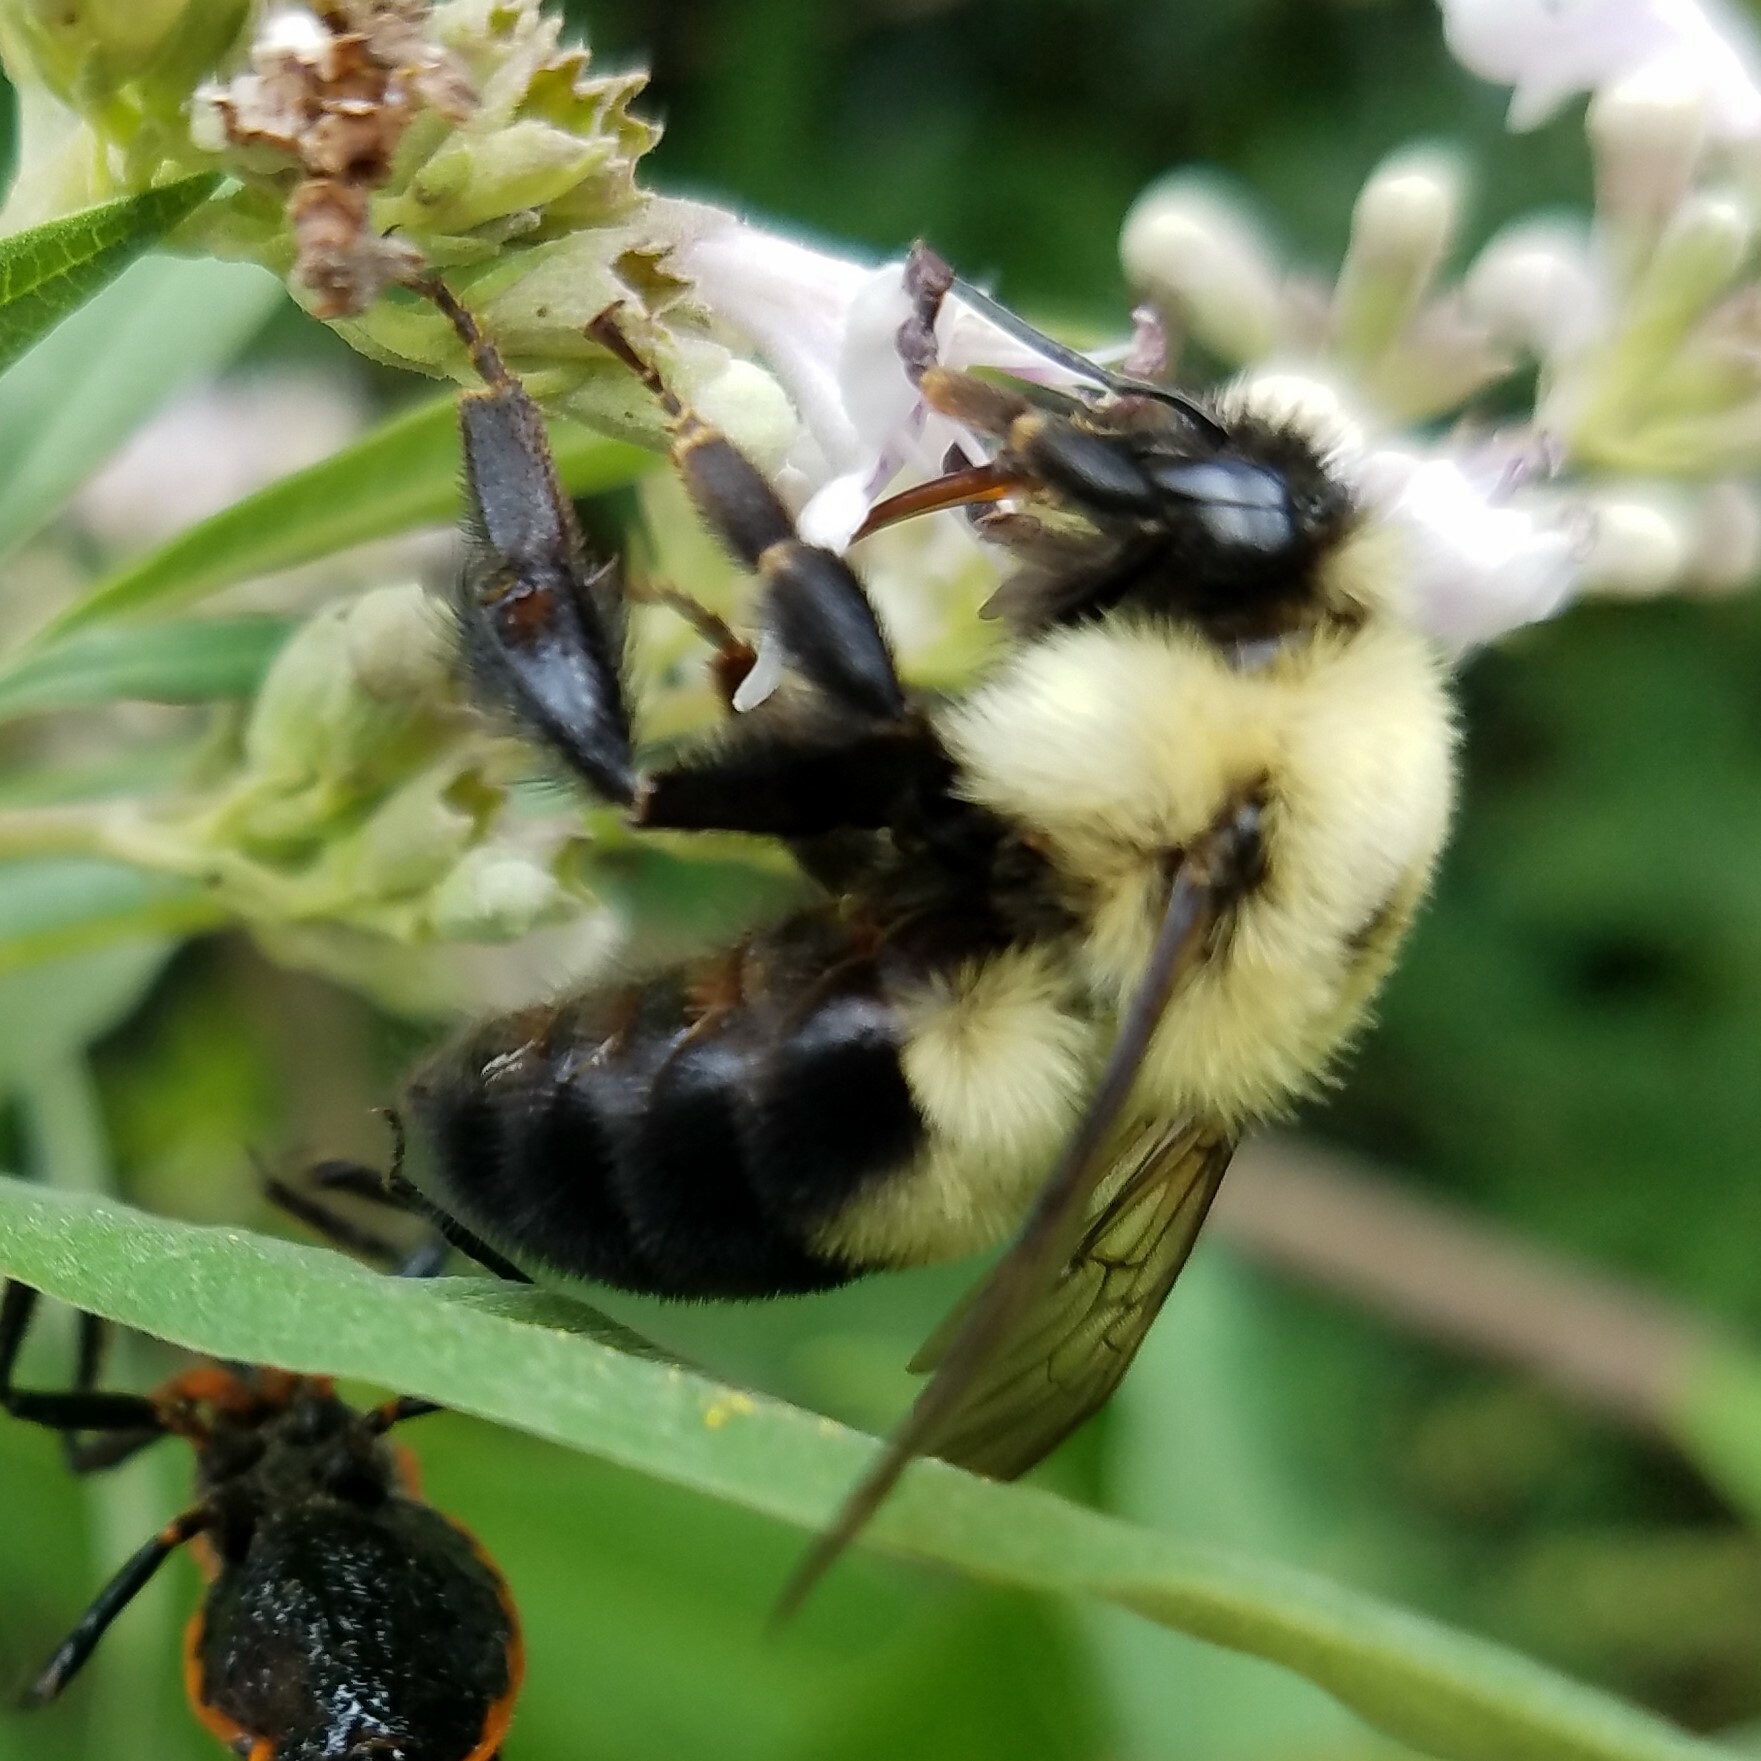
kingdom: Animalia
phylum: Arthropoda
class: Insecta
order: Hymenoptera
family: Apidae
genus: Bombus
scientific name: Bombus bimaculatus
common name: Two-spotted bumble bee
